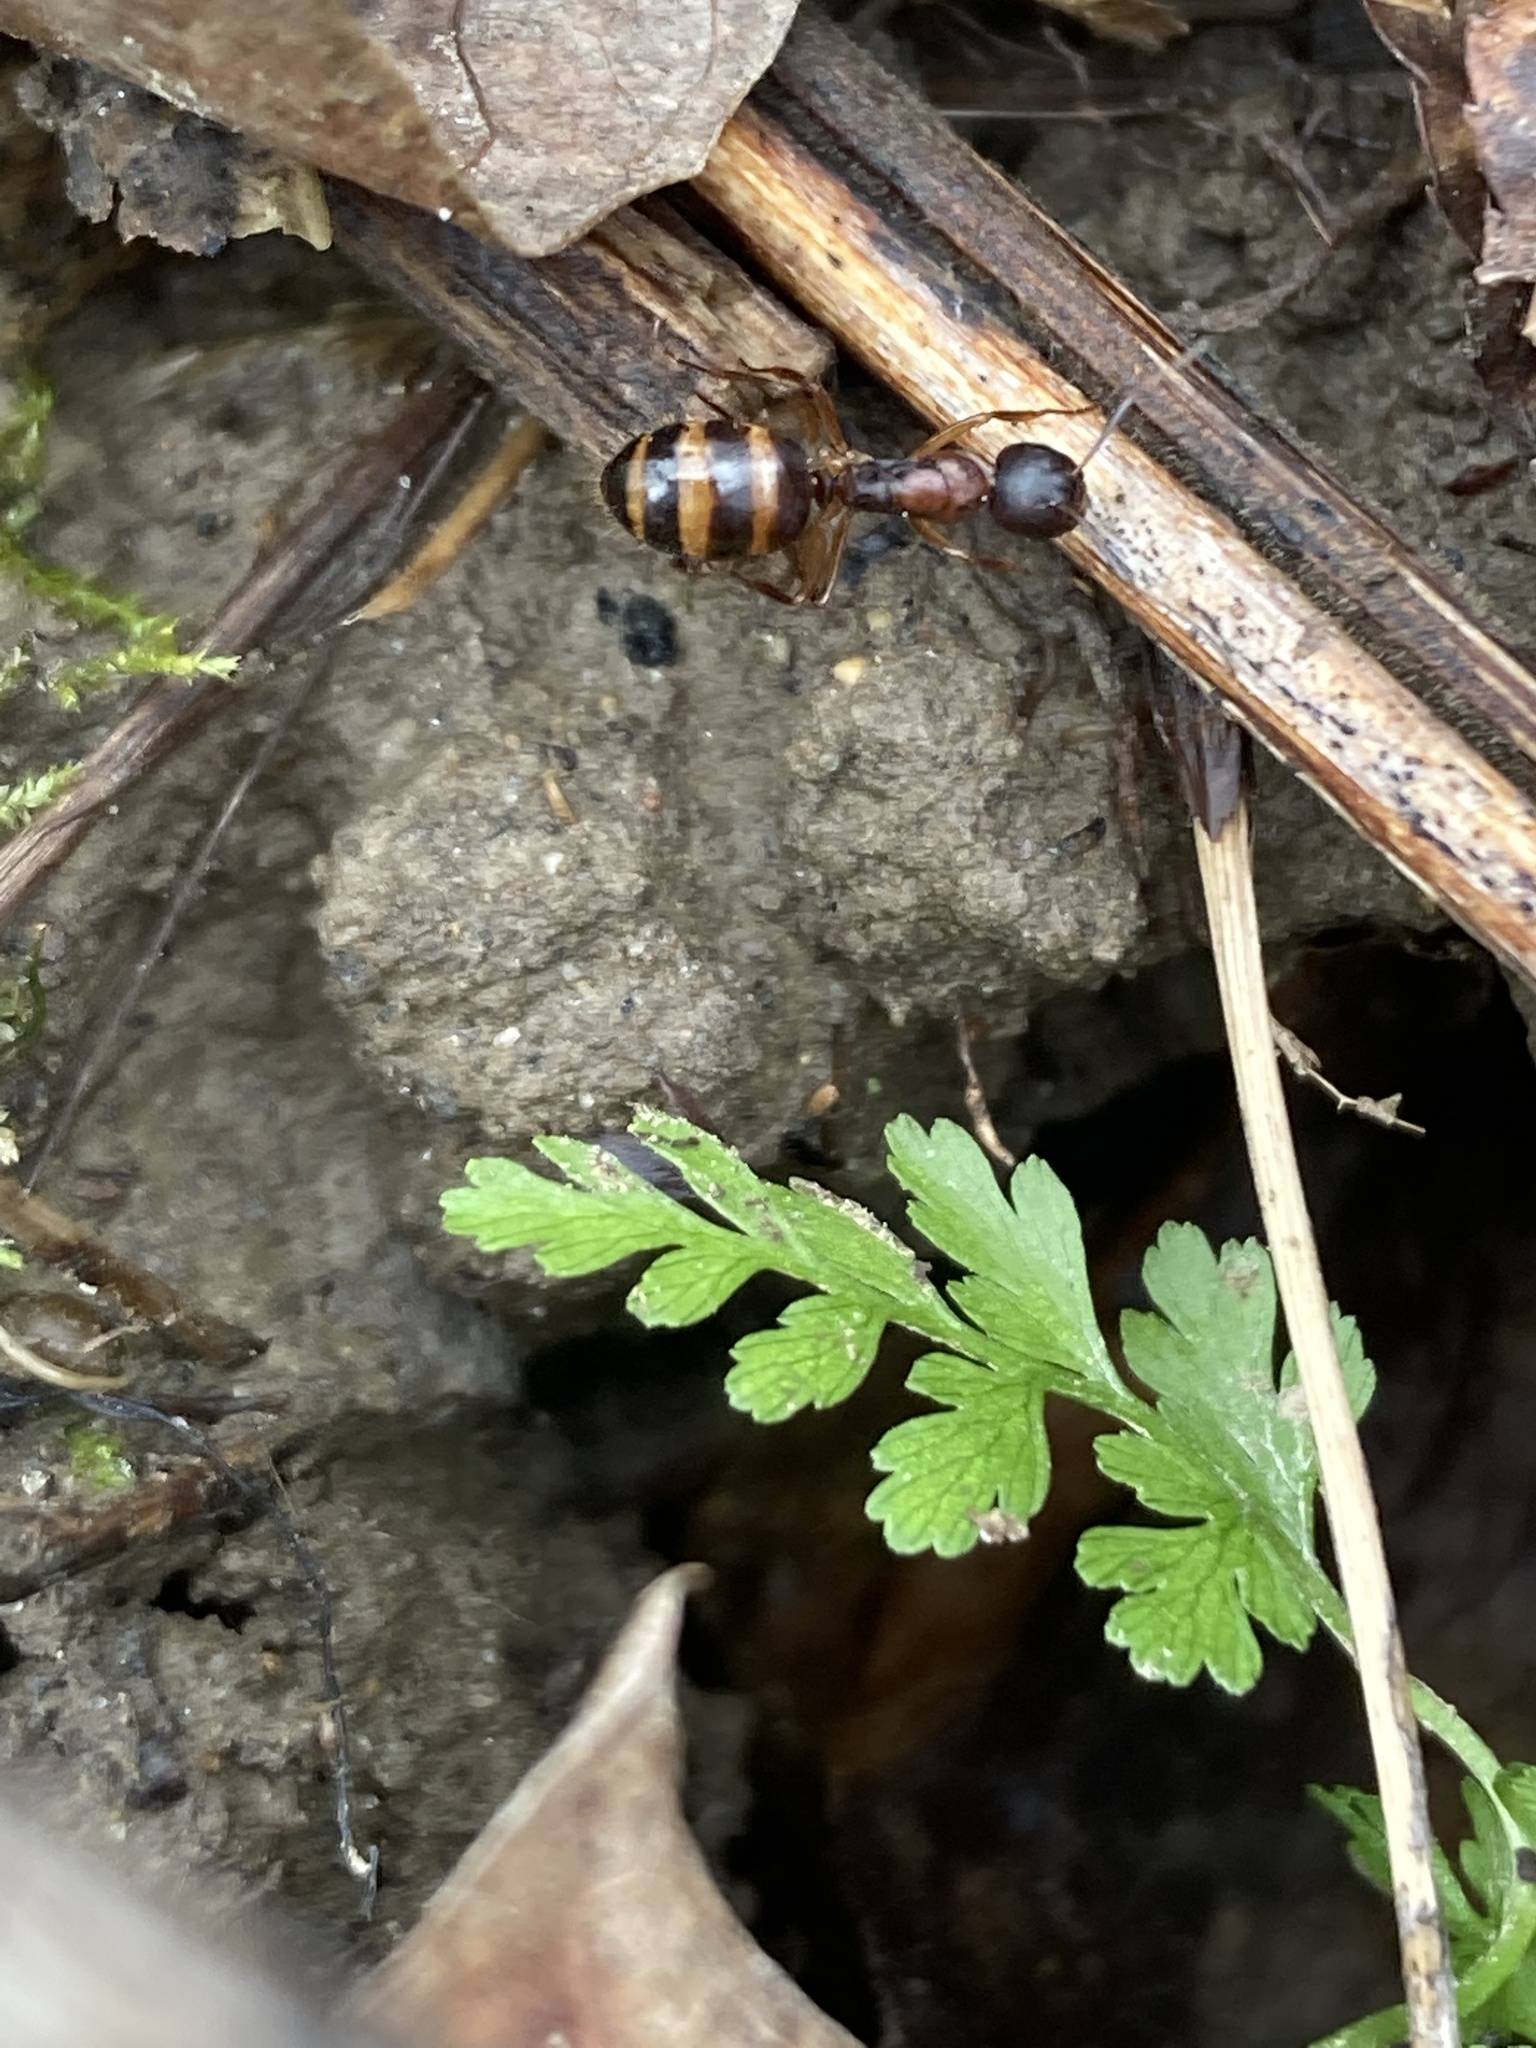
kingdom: Animalia
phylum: Arthropoda
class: Insecta
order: Hymenoptera
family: Formicidae
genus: Camponotus
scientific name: Camponotus subbarbatus
